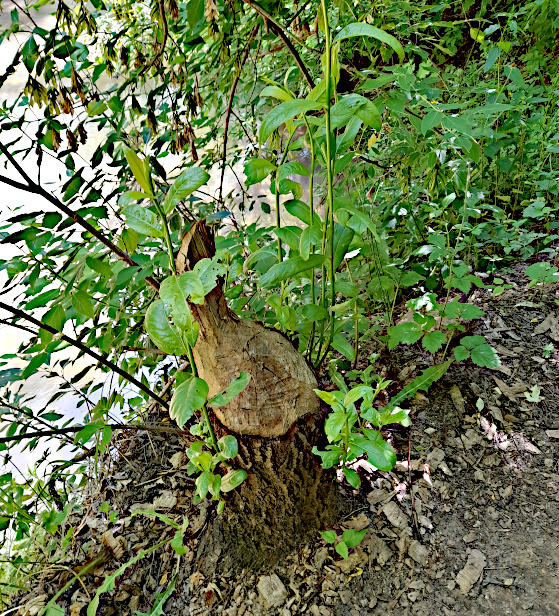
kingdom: Animalia
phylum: Chordata
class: Mammalia
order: Rodentia
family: Castoridae
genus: Castor
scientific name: Castor fiber
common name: Eurasian beaver
